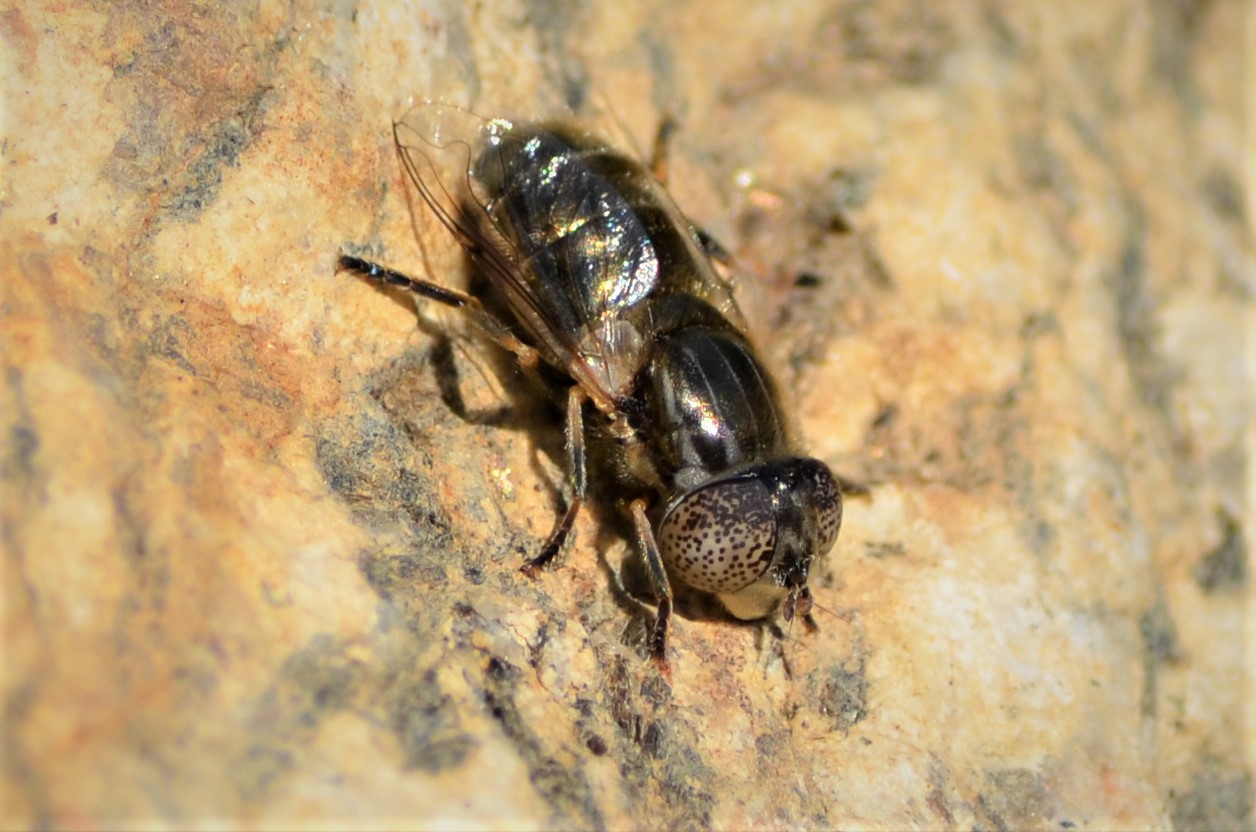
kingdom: Animalia
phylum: Arthropoda
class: Insecta
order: Diptera
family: Syrphidae
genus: Eristalinus
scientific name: Eristalinus aeneus
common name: Syrphid fly
